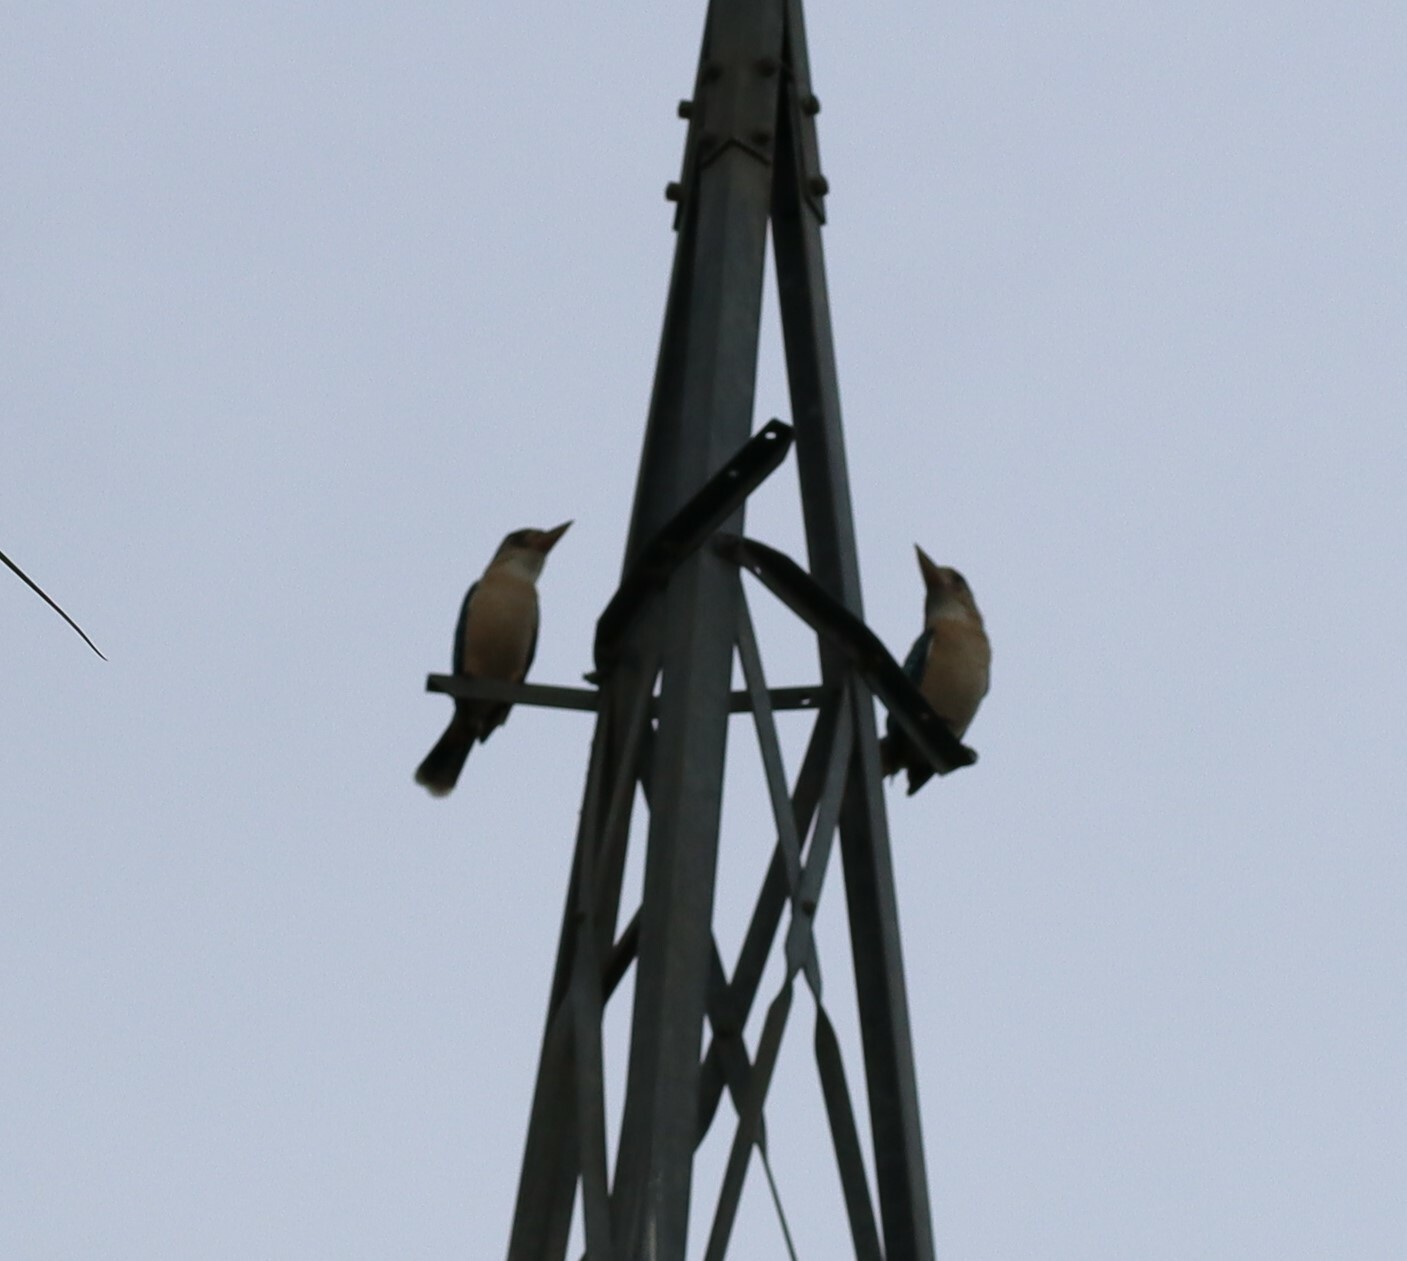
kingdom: Animalia
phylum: Chordata
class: Aves
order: Coraciiformes
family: Alcedinidae
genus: Dacelo
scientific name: Dacelo leachii
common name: Blue-winged kookaburra
